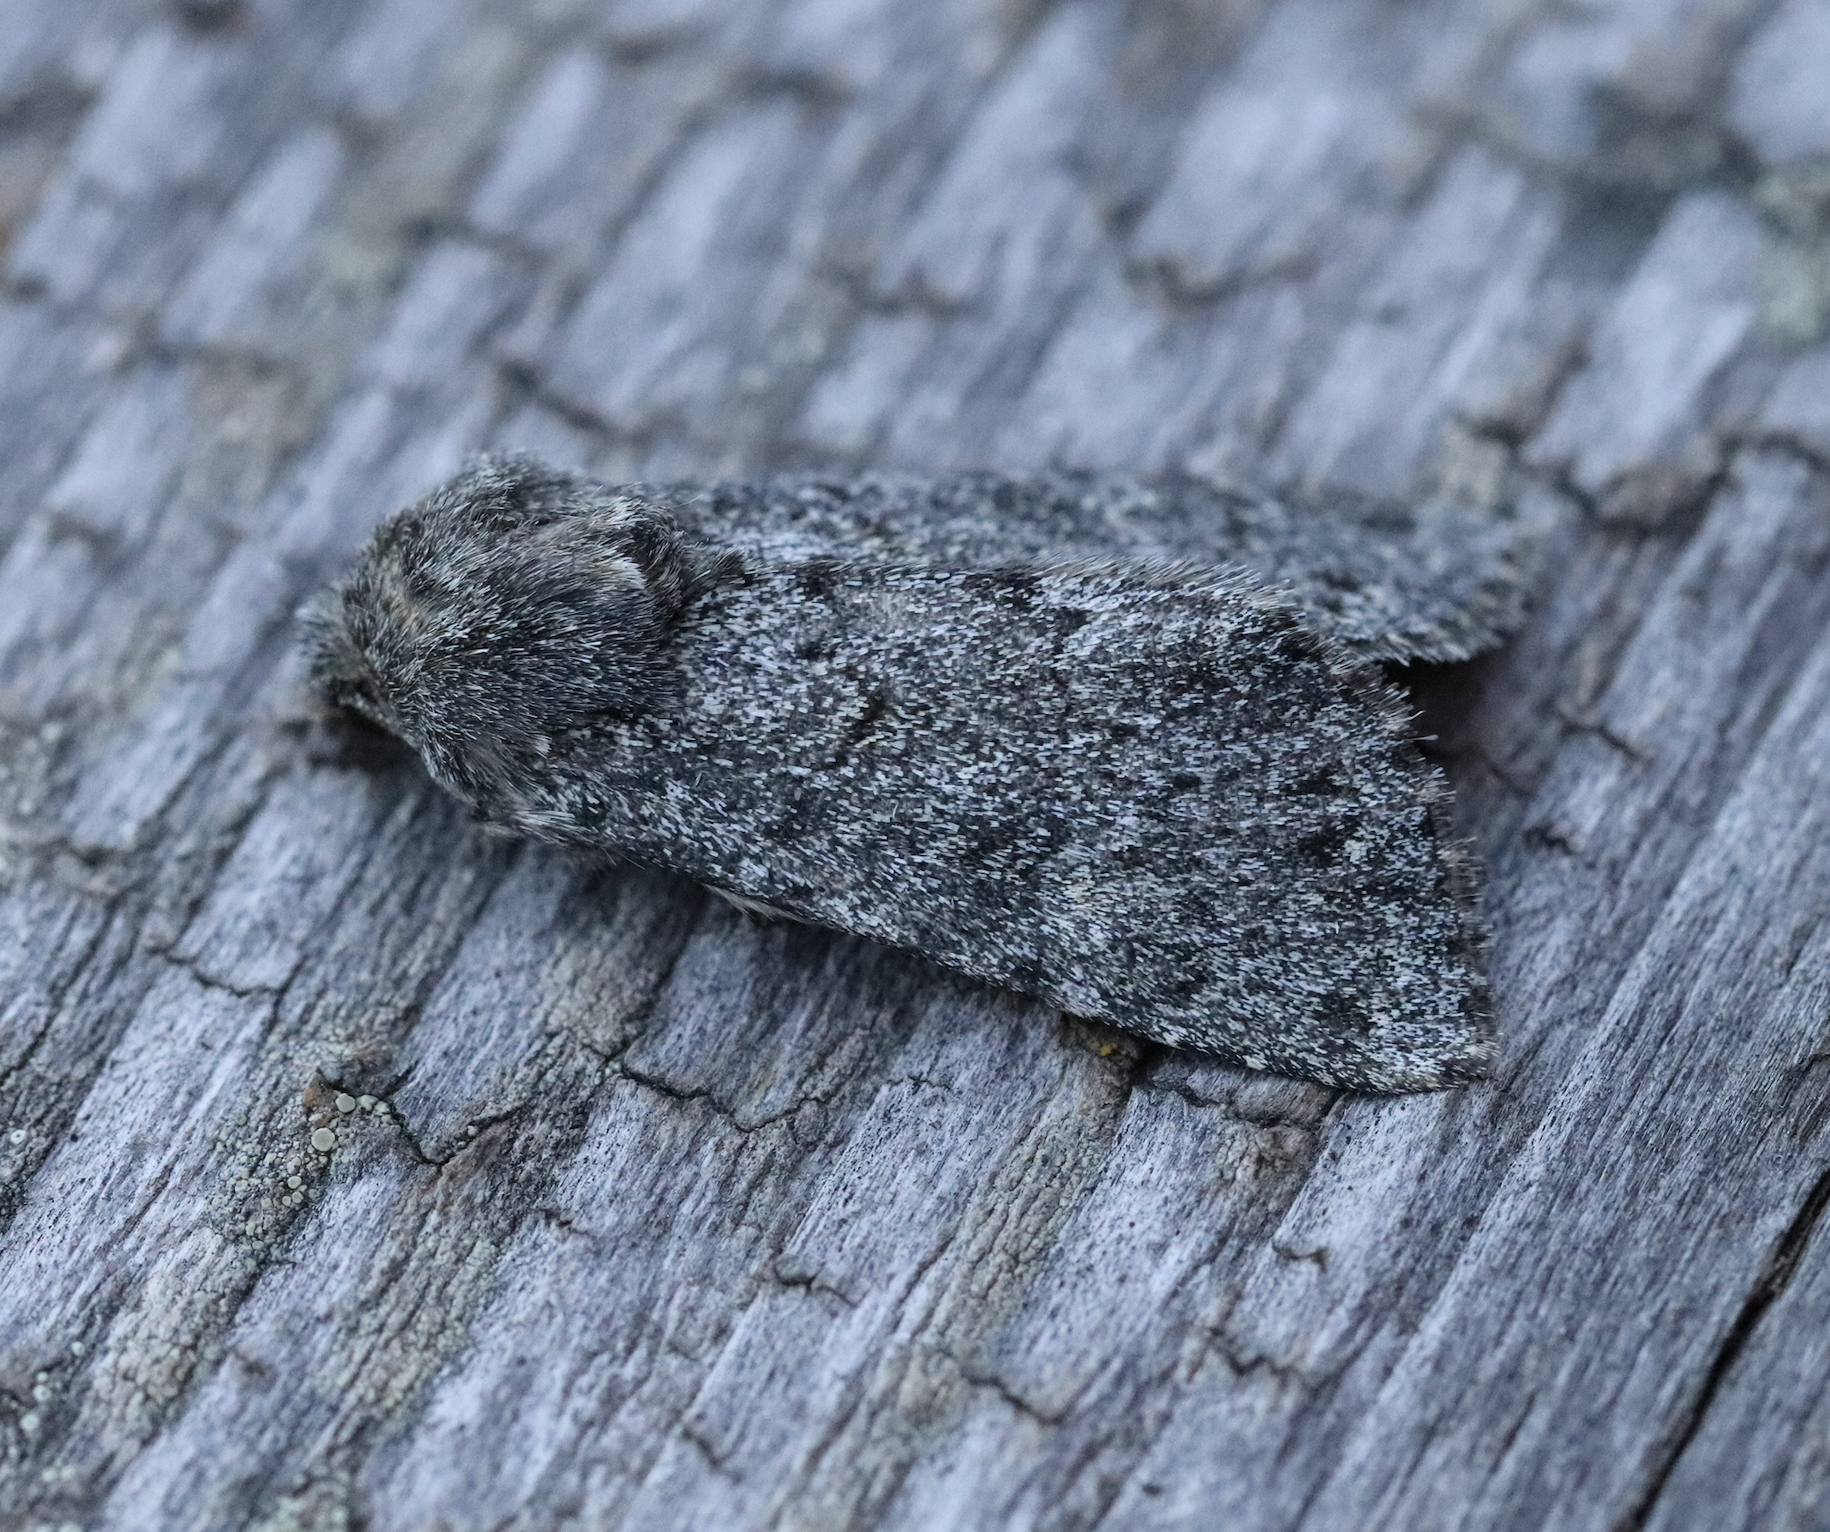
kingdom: Animalia
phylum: Arthropoda
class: Insecta
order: Lepidoptera
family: Noctuidae
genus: Apamea
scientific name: Apamea zeta
